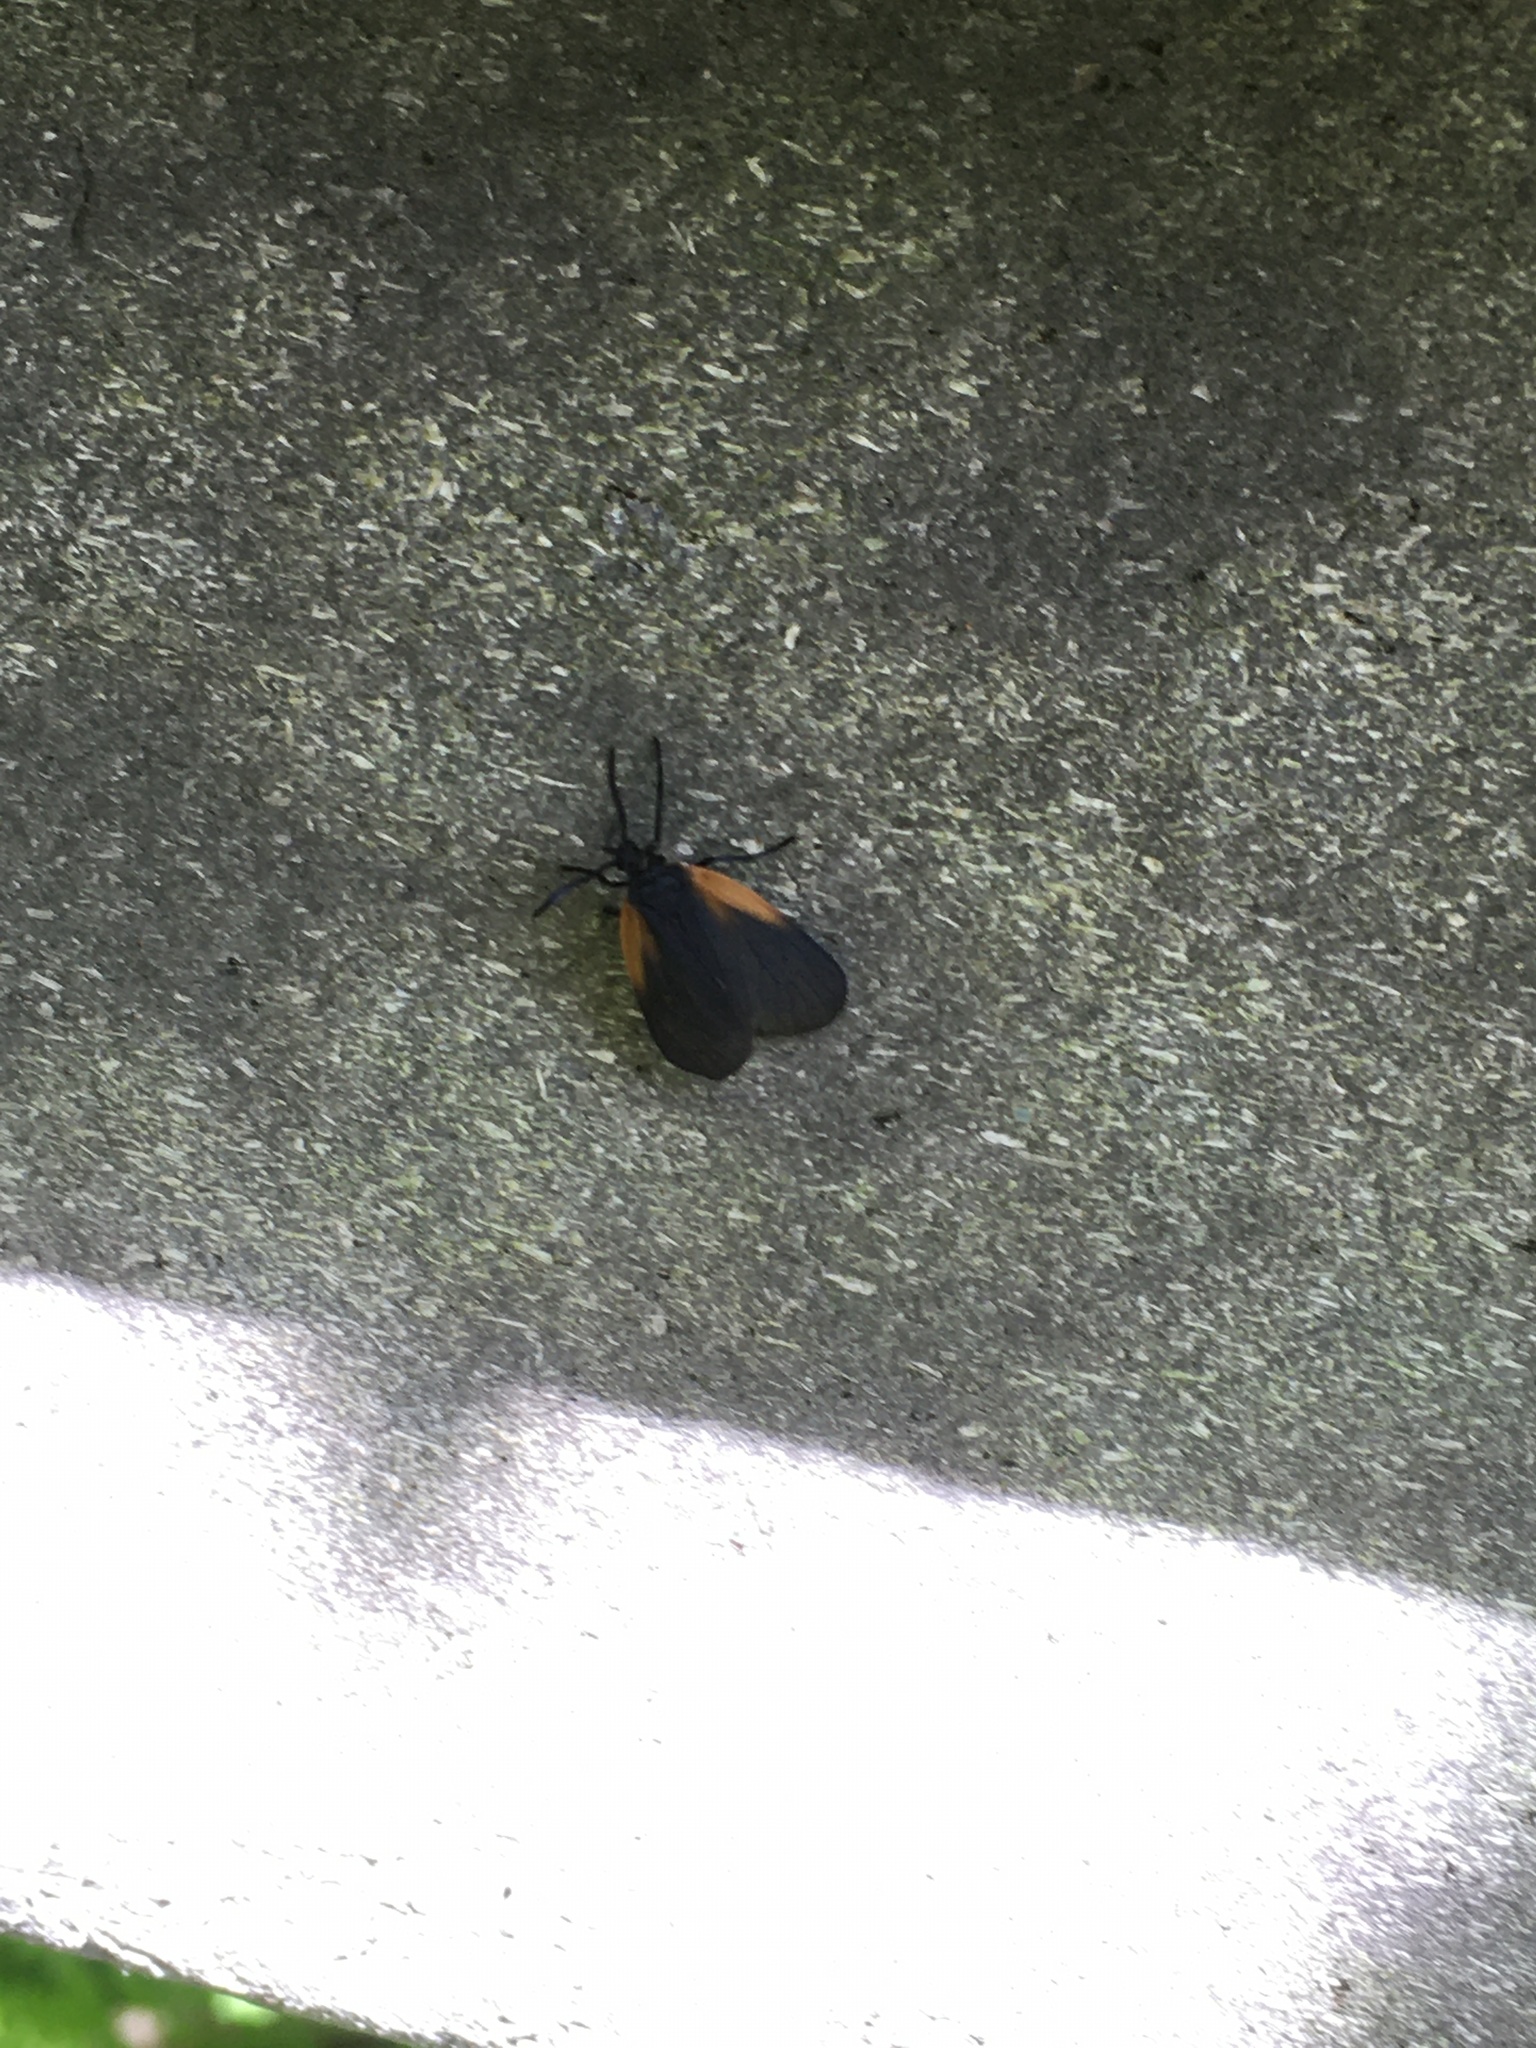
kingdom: Animalia
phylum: Arthropoda
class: Insecta
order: Lepidoptera
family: Zygaenidae
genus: Malthaca
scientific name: Malthaca dimidiata
